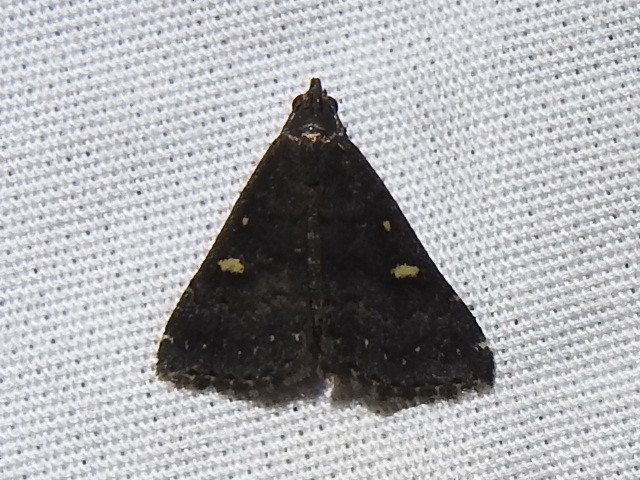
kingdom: Animalia
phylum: Arthropoda
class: Insecta
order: Lepidoptera
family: Erebidae
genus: Tetanolita
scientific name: Tetanolita mynesalis
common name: Smoky tetanolita moth
